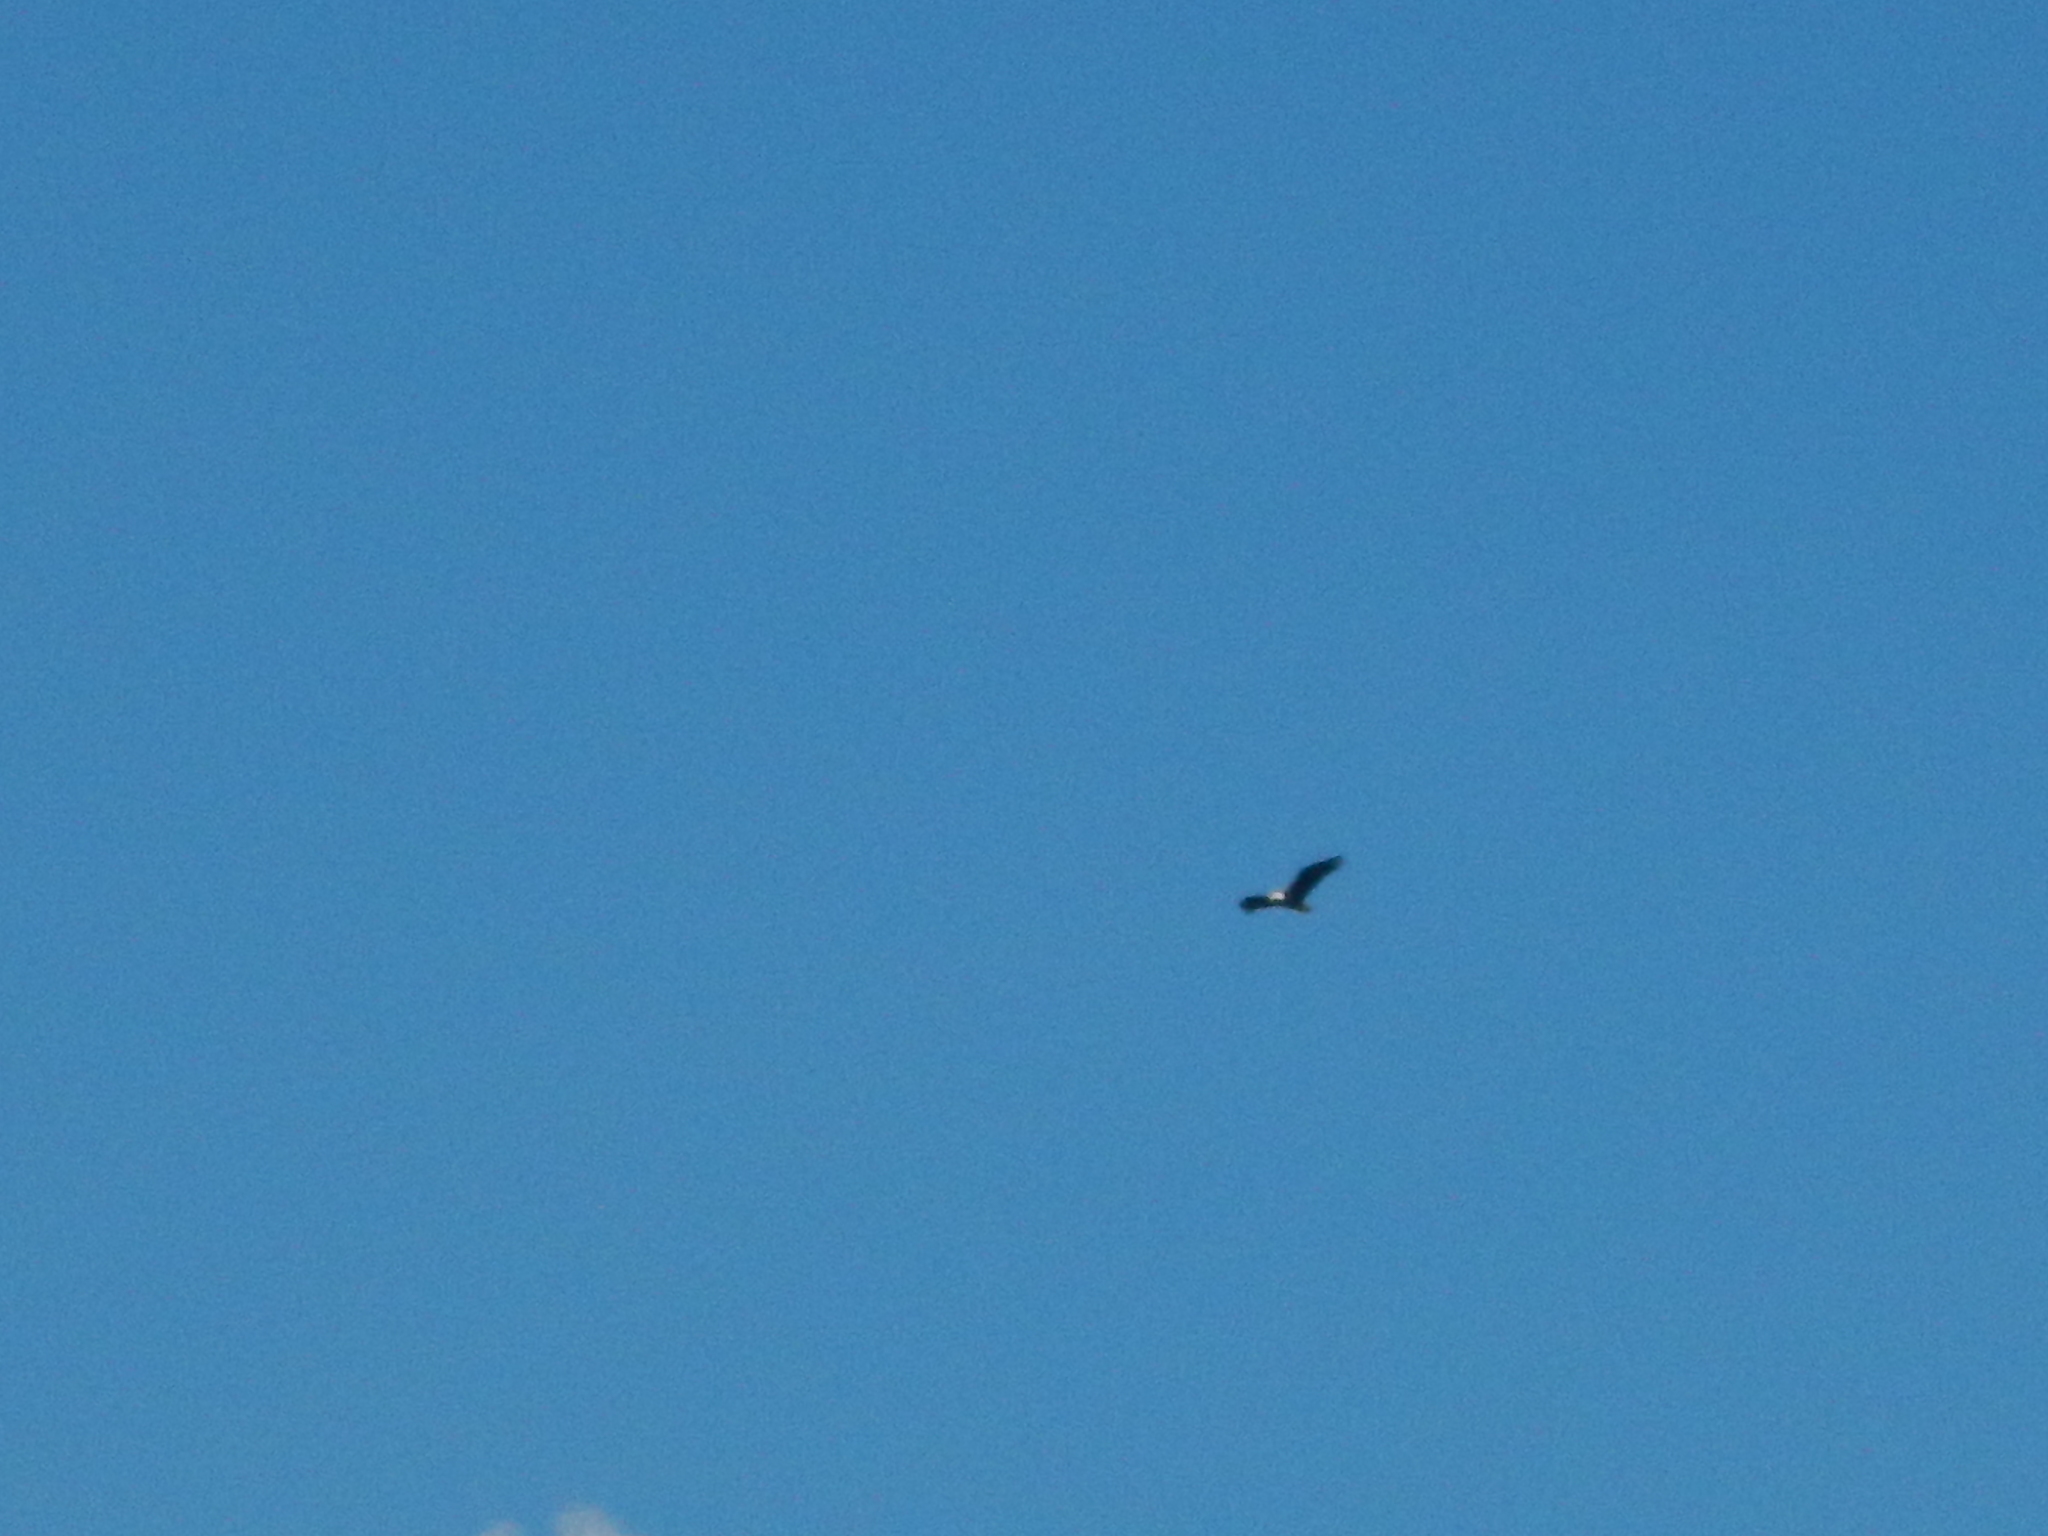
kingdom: Animalia
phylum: Chordata
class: Aves
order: Accipitriformes
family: Accipitridae
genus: Haliaeetus
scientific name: Haliaeetus leucocephalus
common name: Bald eagle
